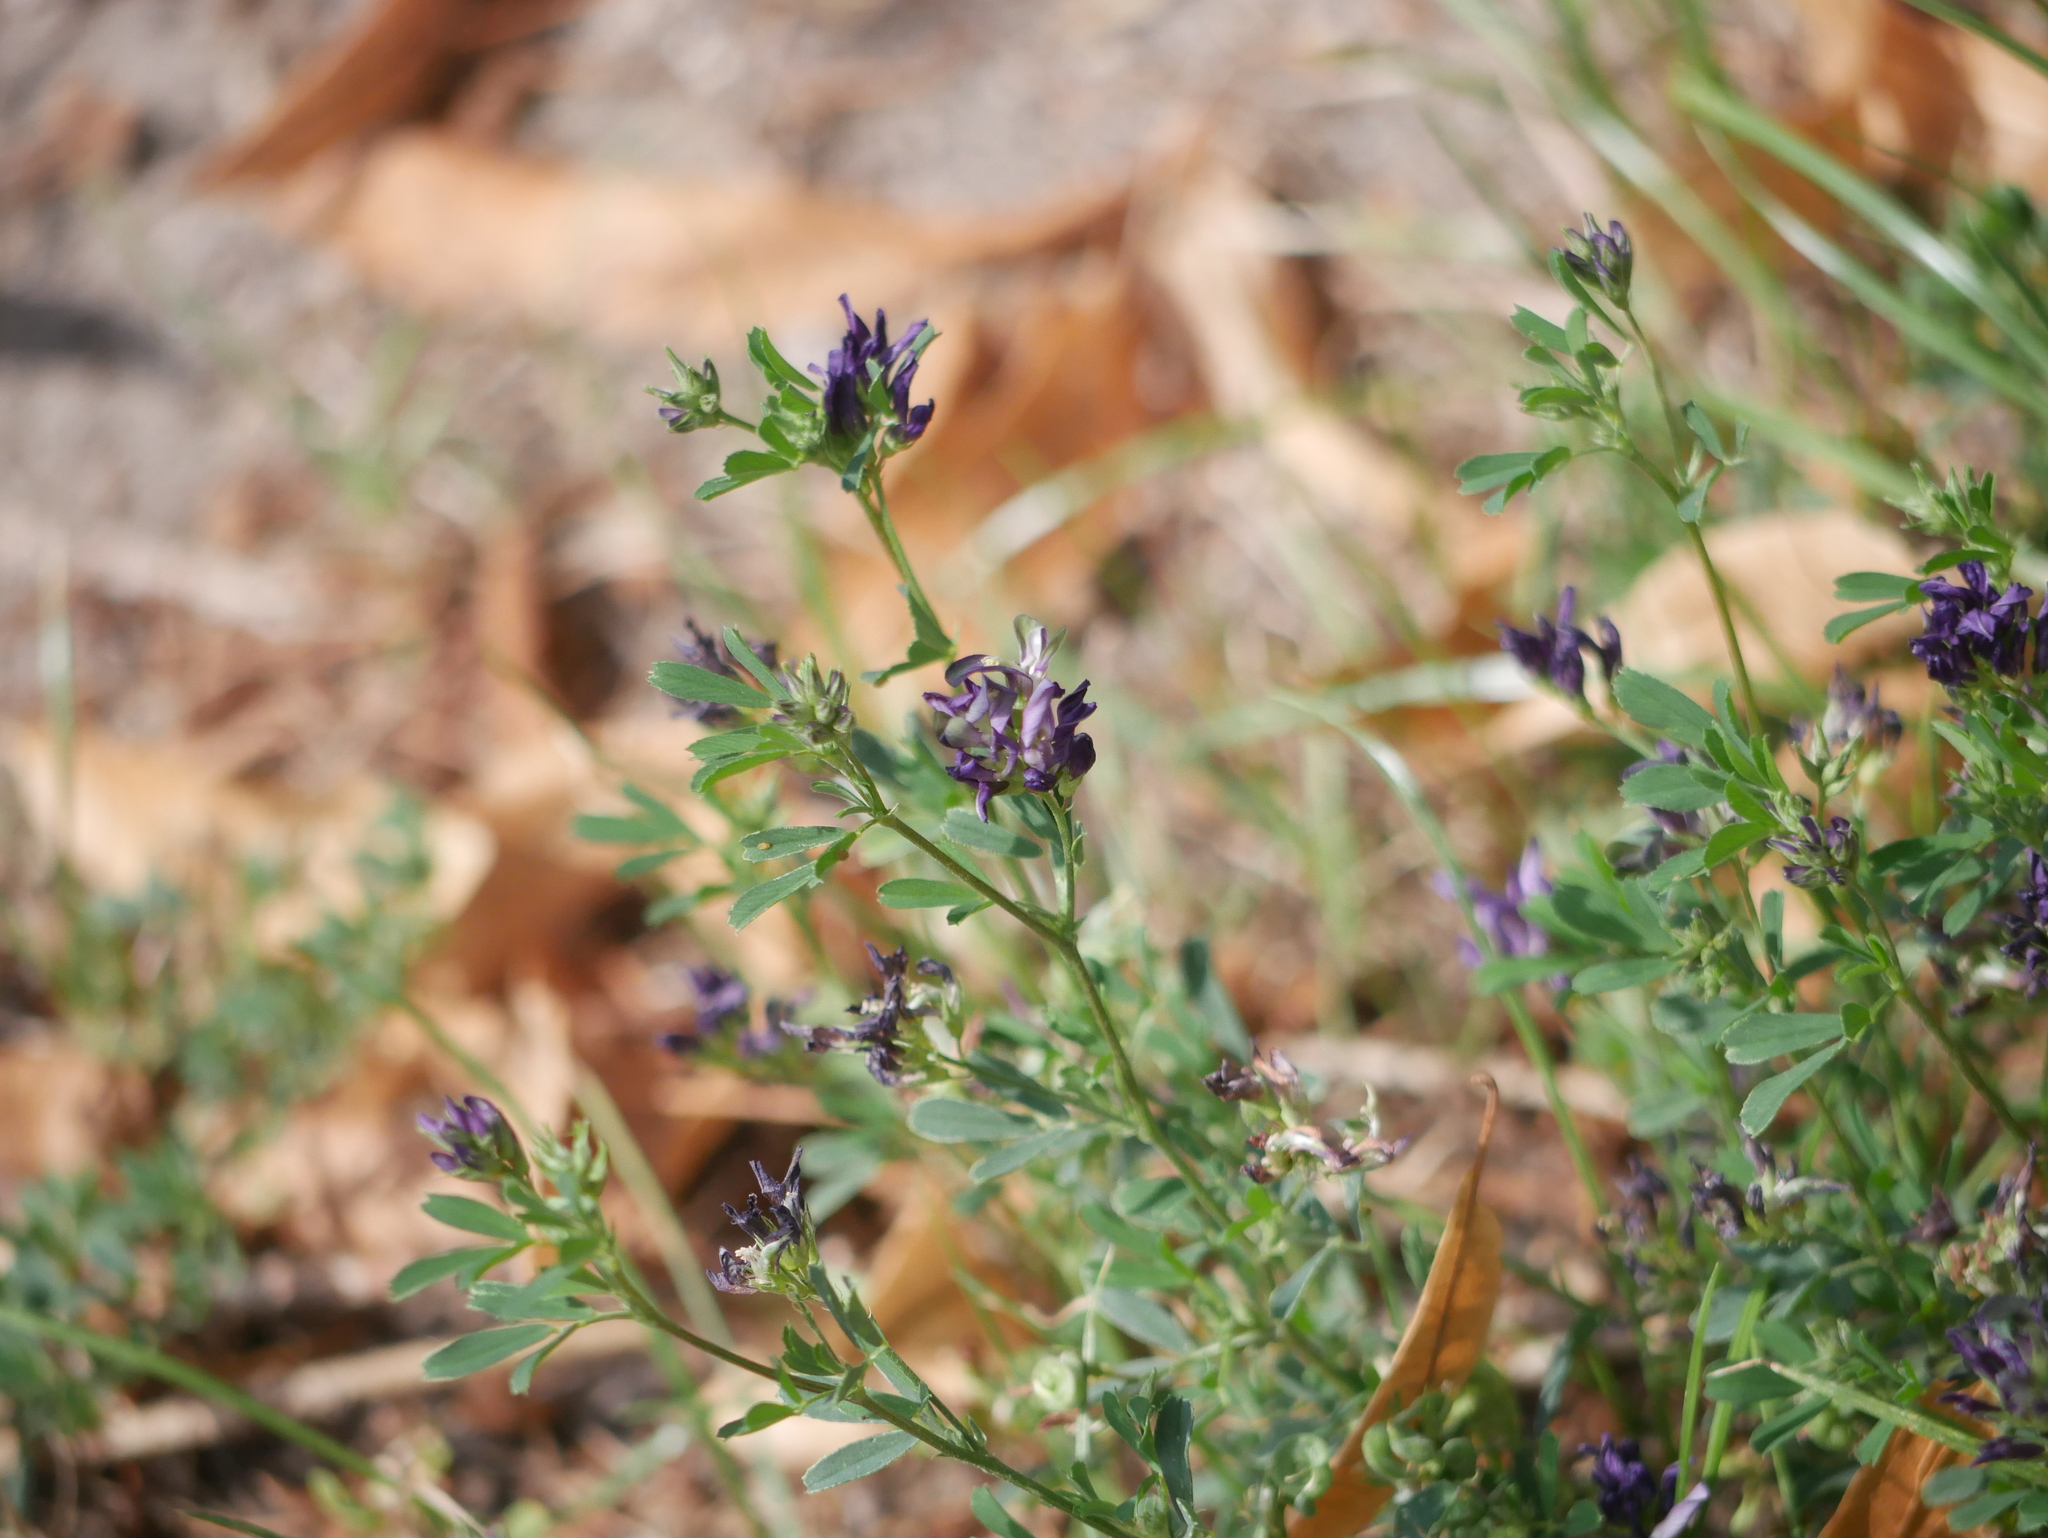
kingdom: Plantae
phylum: Tracheophyta
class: Magnoliopsida
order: Fabales
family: Fabaceae
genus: Medicago
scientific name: Medicago sativa
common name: Alfalfa
